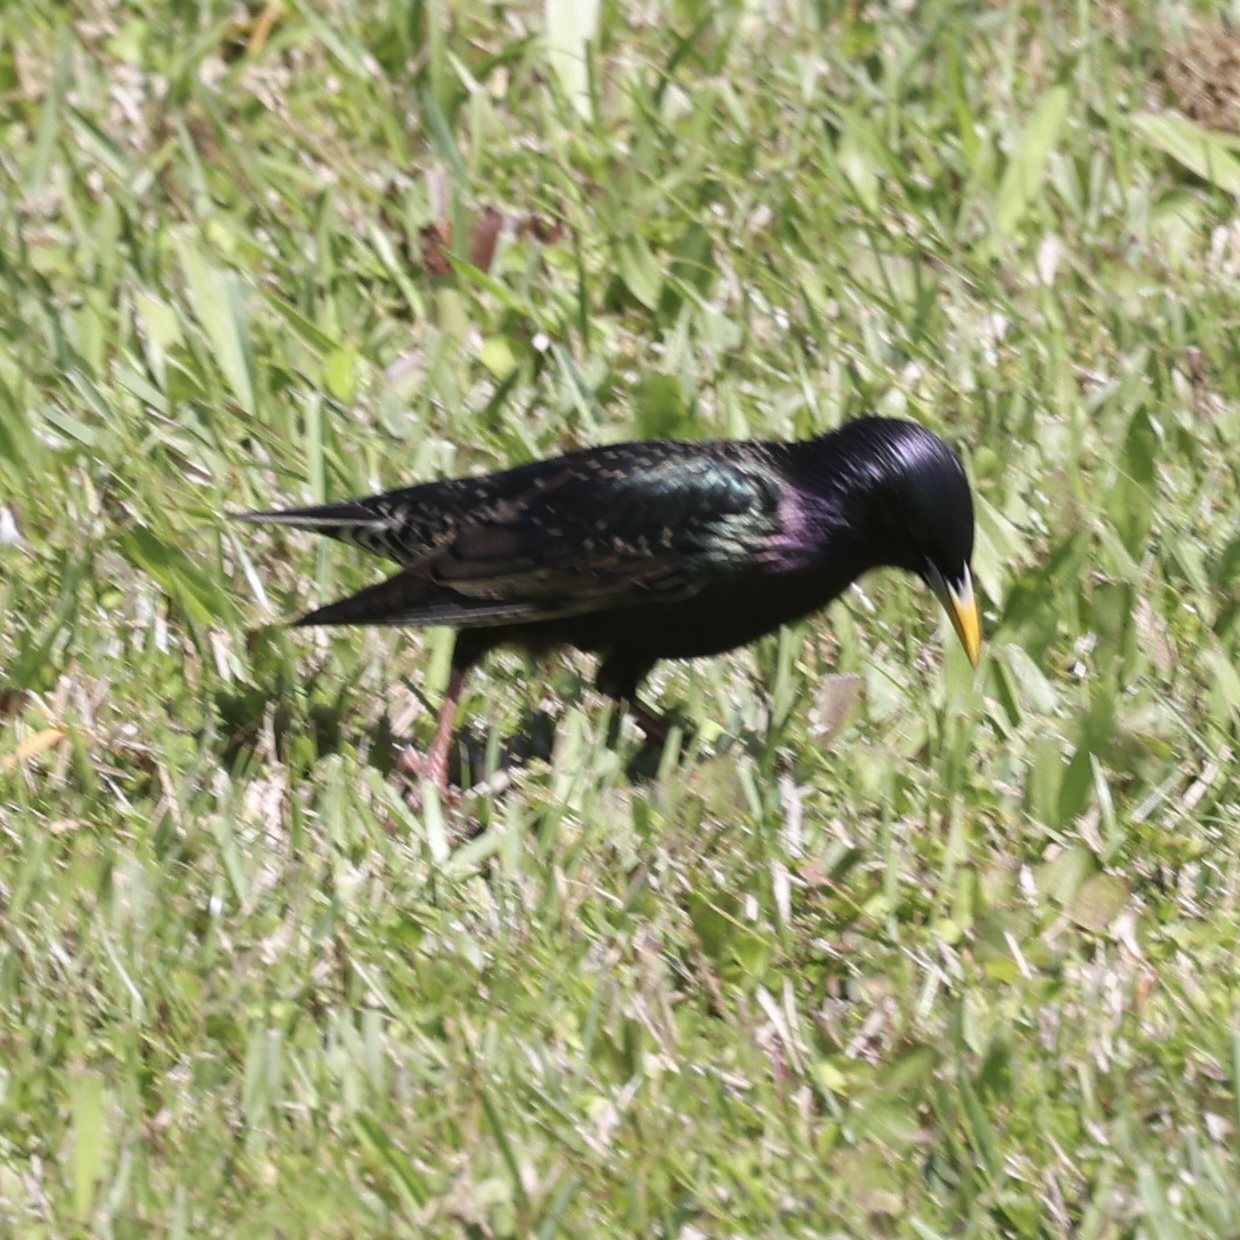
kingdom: Animalia
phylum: Chordata
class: Aves
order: Passeriformes
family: Sturnidae
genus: Sturnus
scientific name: Sturnus vulgaris
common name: Common starling
